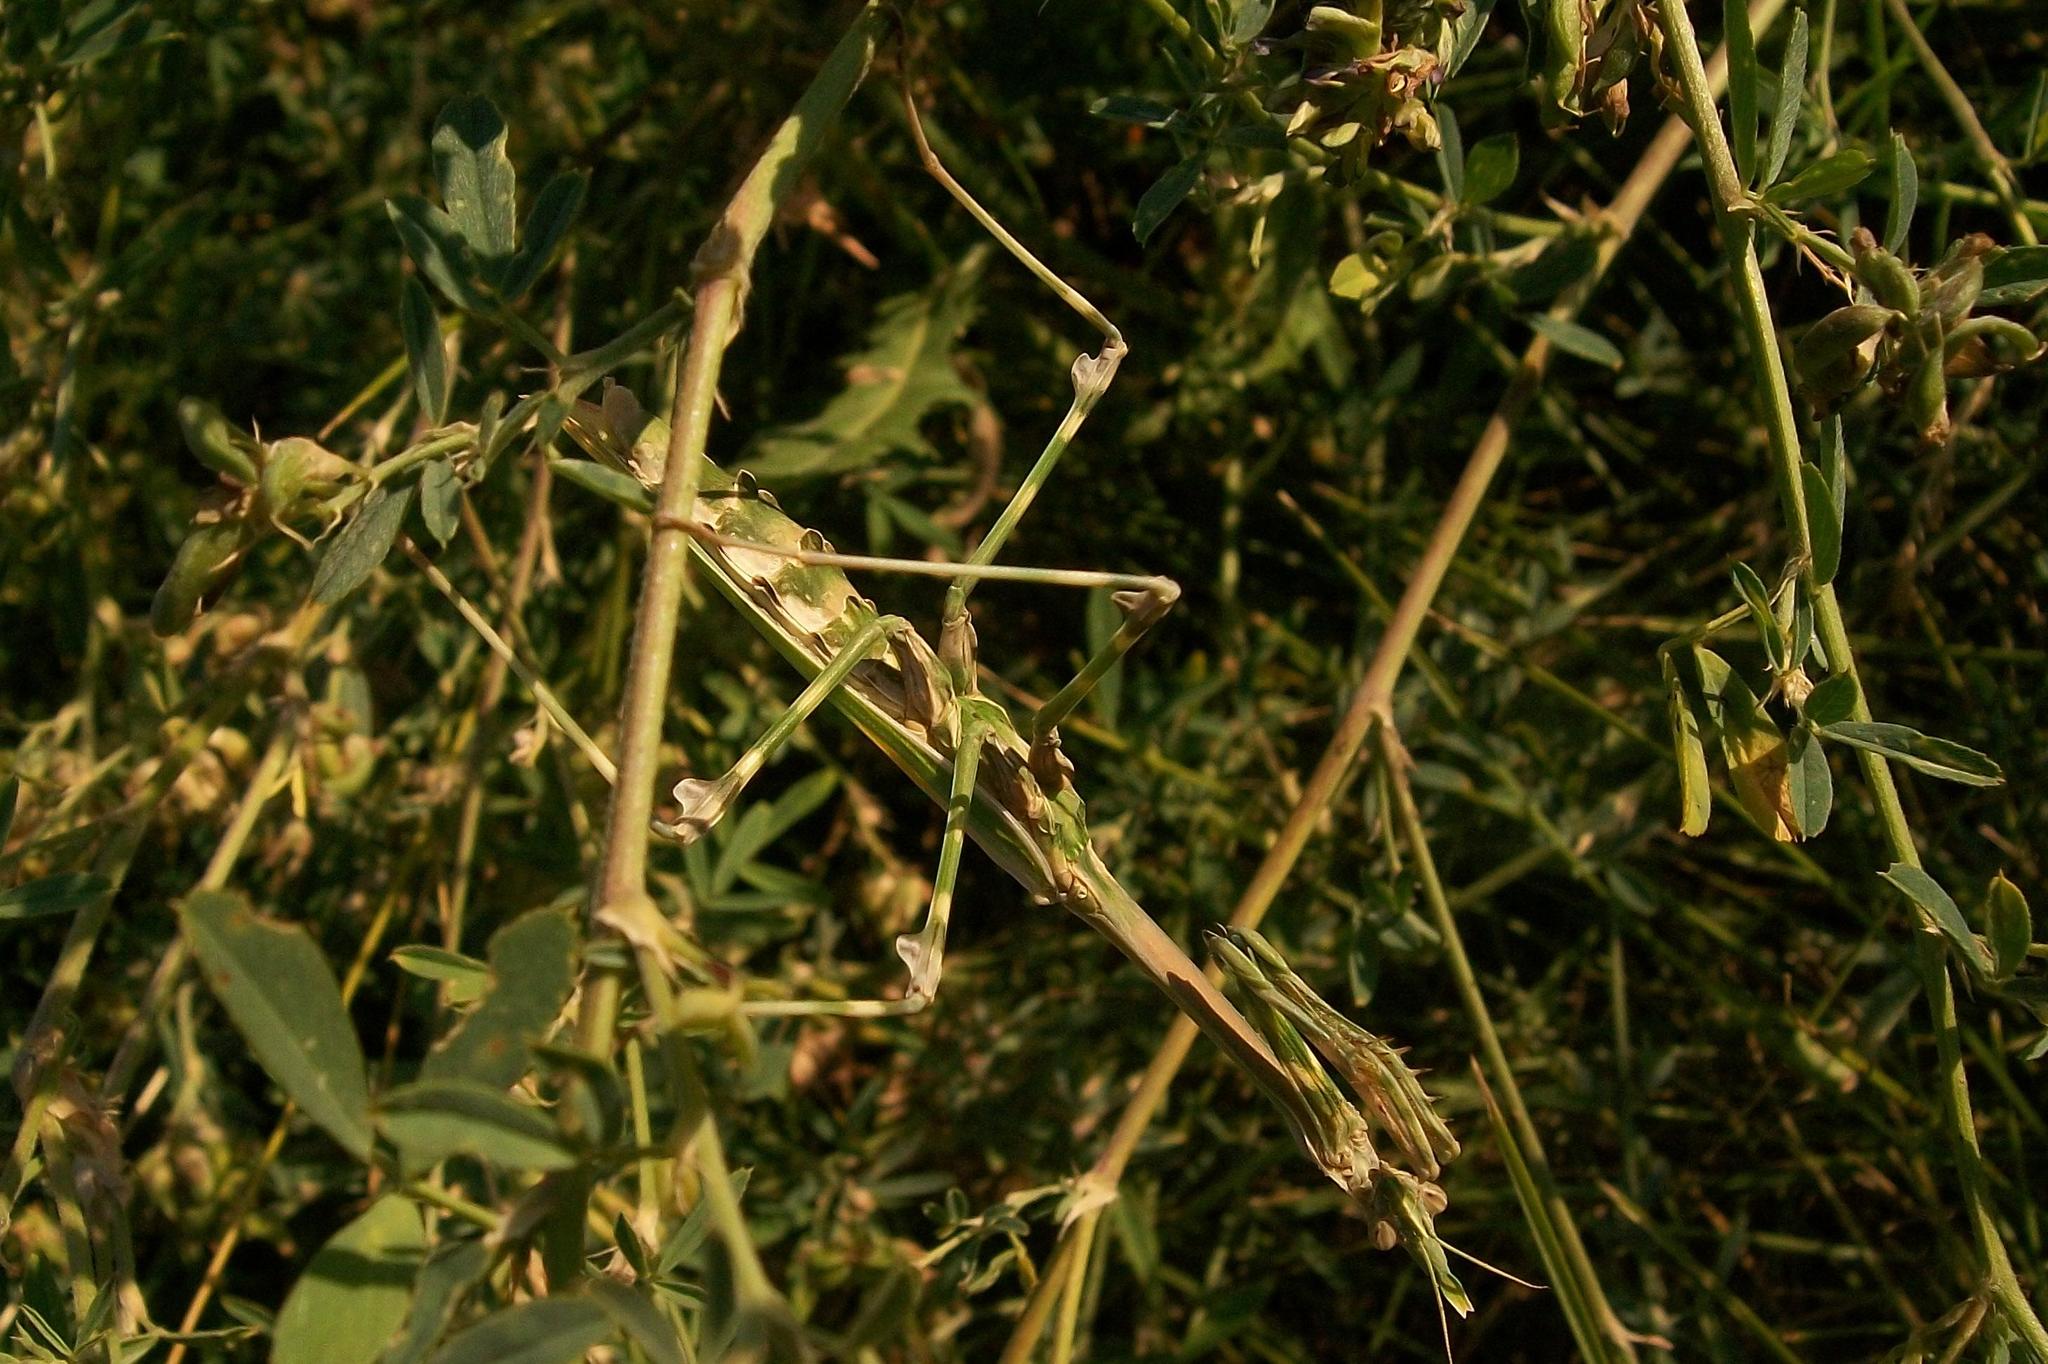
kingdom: Animalia
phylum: Arthropoda
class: Insecta
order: Mantodea
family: Empusidae
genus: Empusa
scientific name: Empusa pennicornis
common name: Conehead mantis
